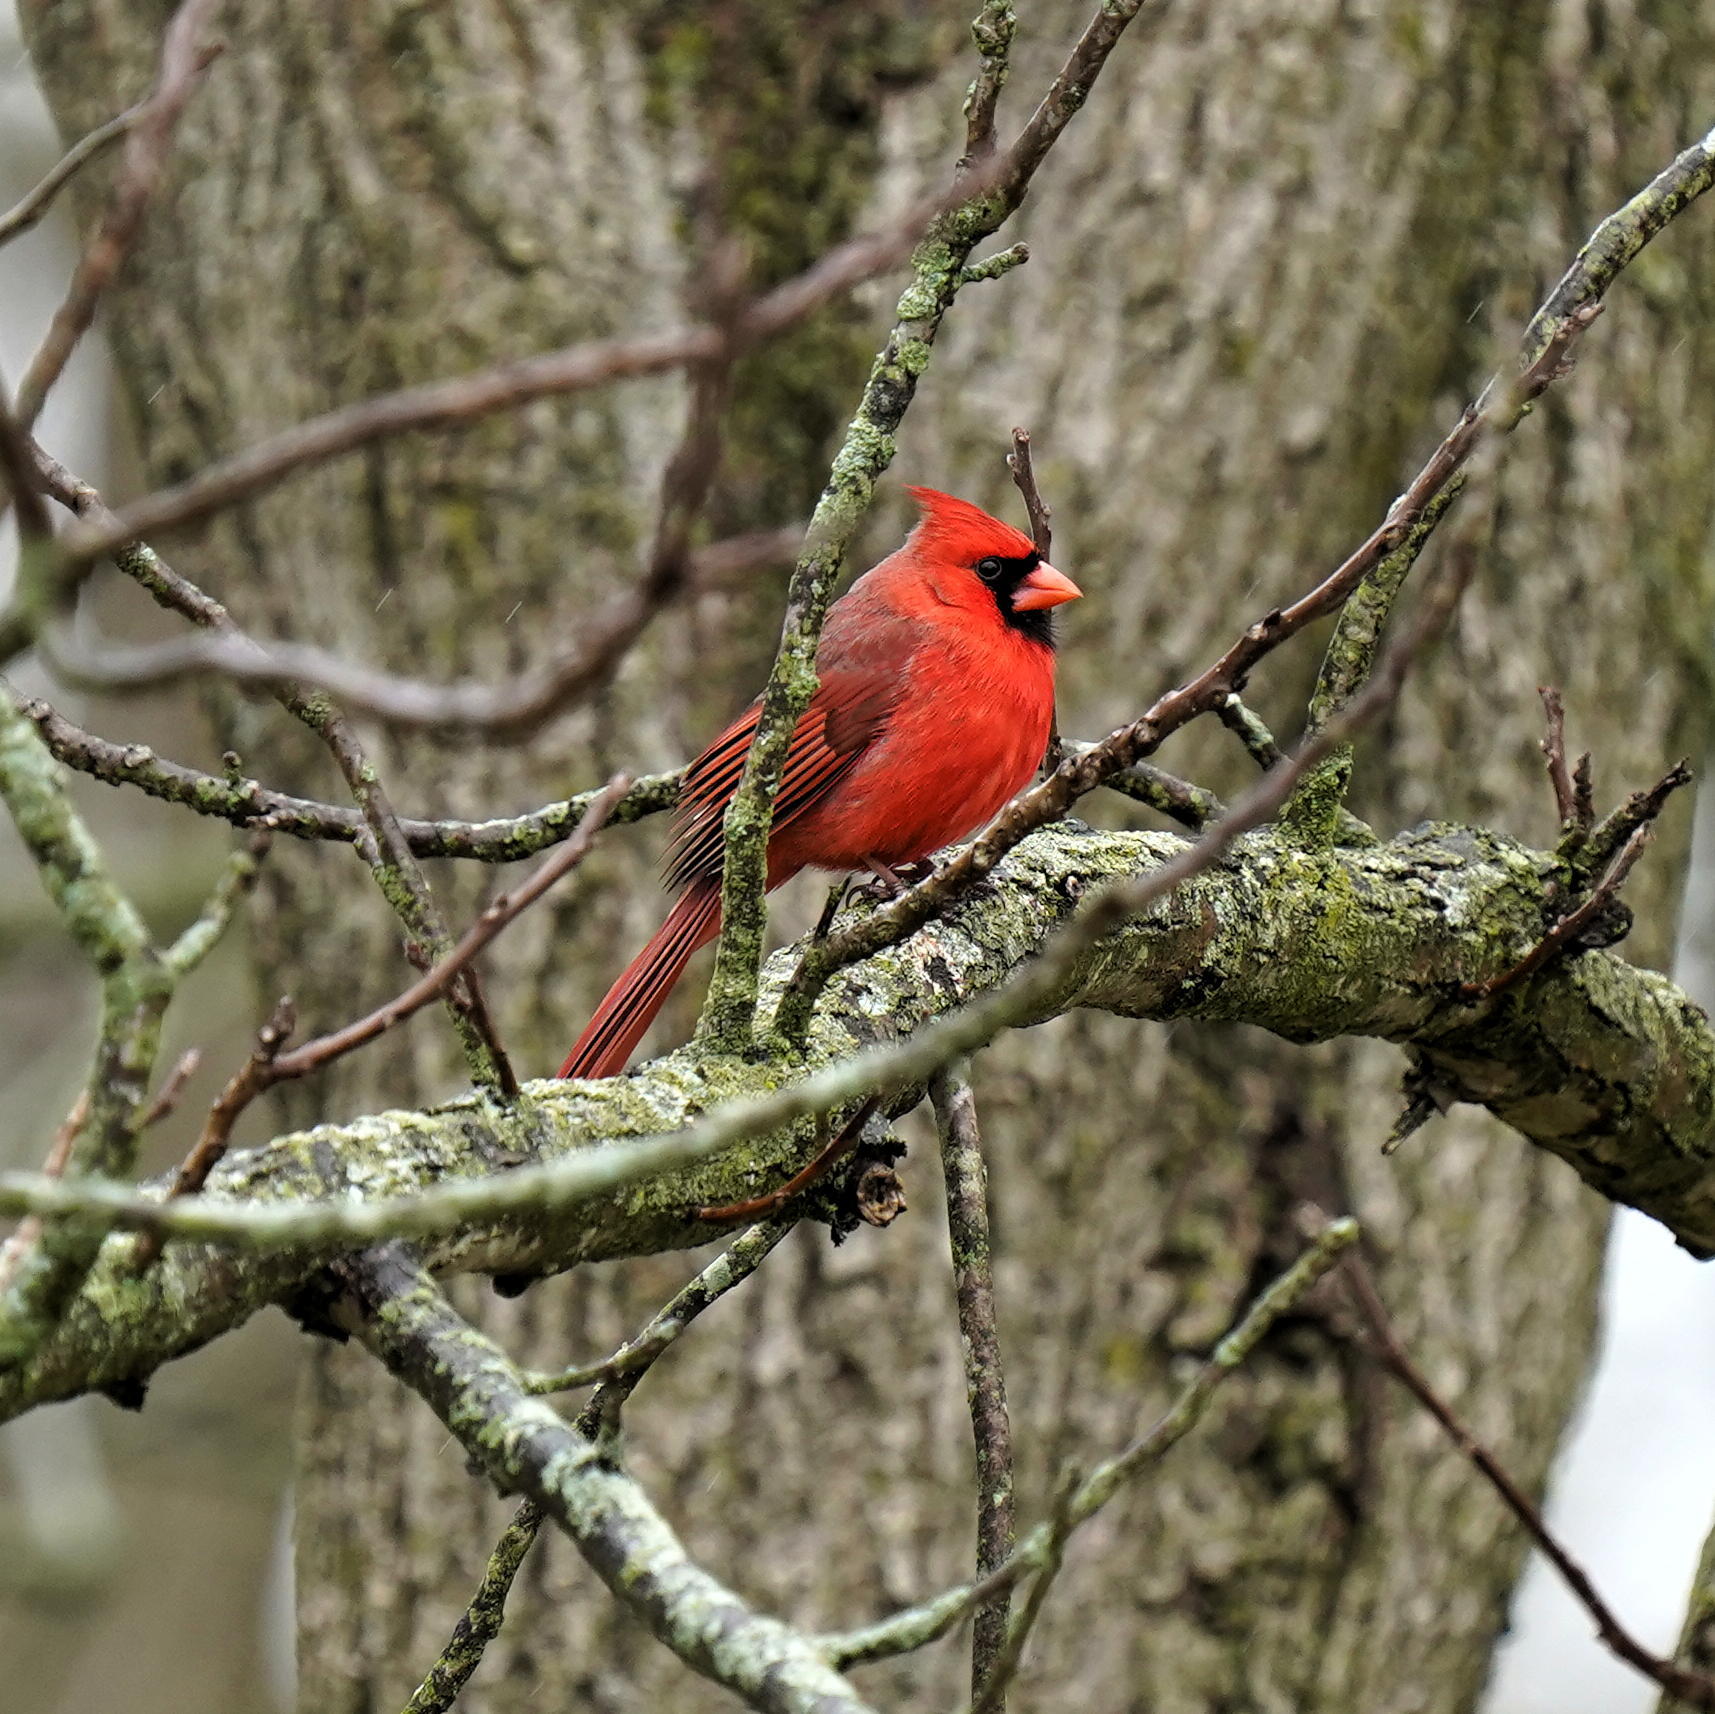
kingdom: Animalia
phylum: Chordata
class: Aves
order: Passeriformes
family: Cardinalidae
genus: Cardinalis
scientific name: Cardinalis cardinalis
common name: Northern cardinal
